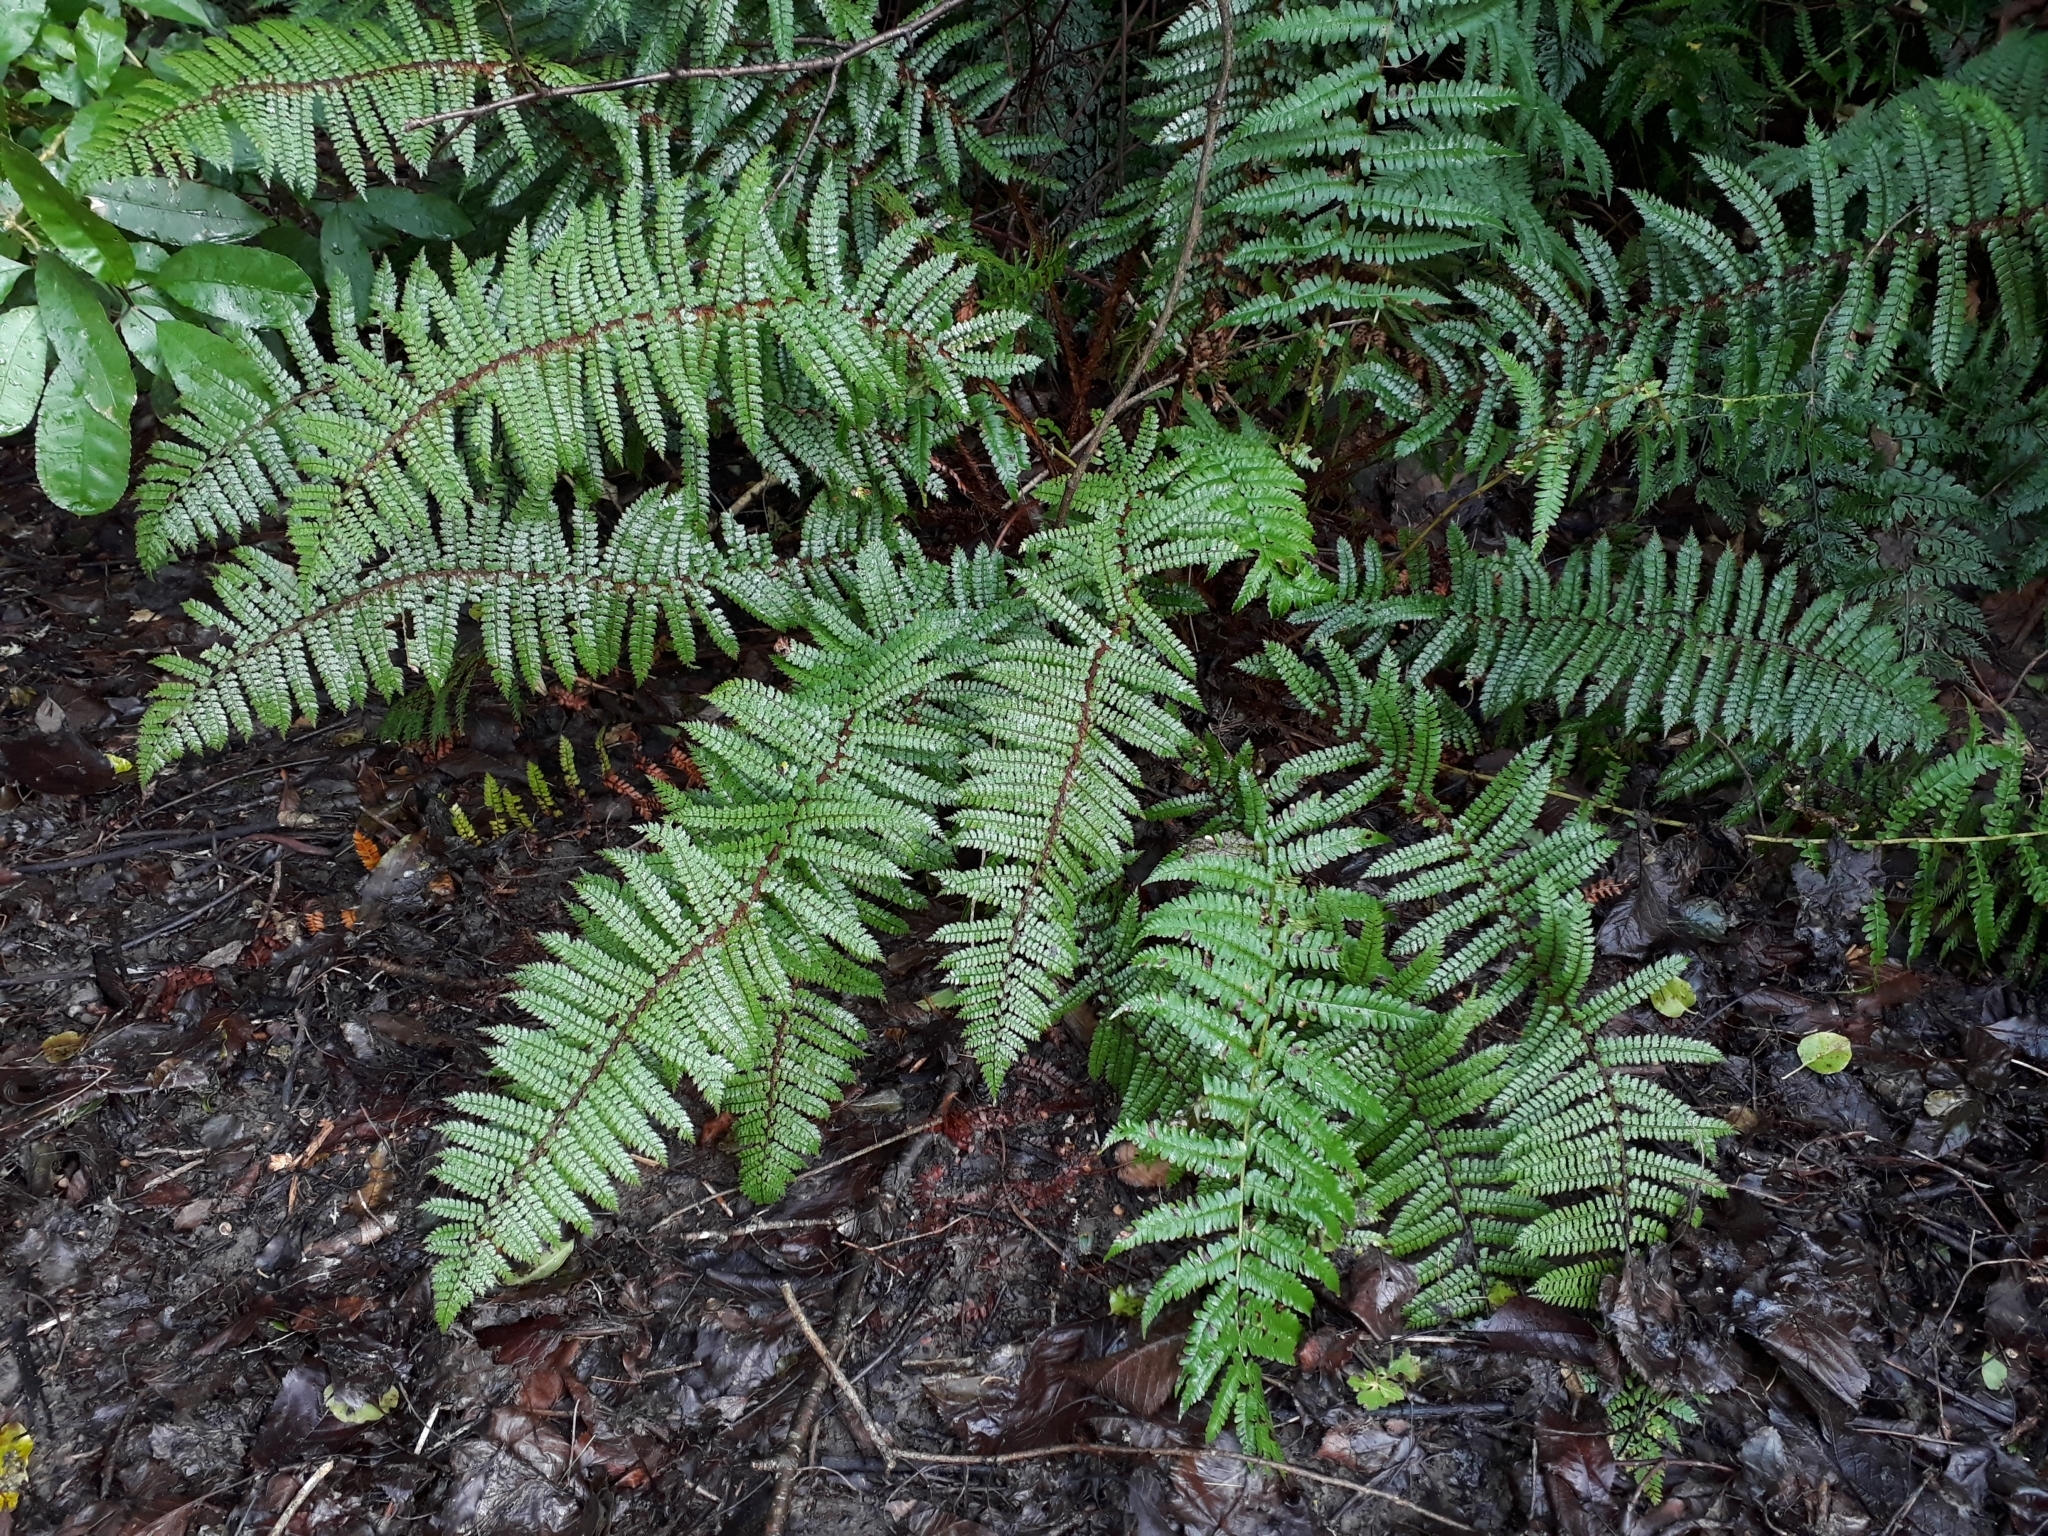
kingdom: Plantae
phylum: Tracheophyta
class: Polypodiopsida
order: Polypodiales
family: Dryopteridaceae
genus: Polystichum
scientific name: Polystichum vestitum
